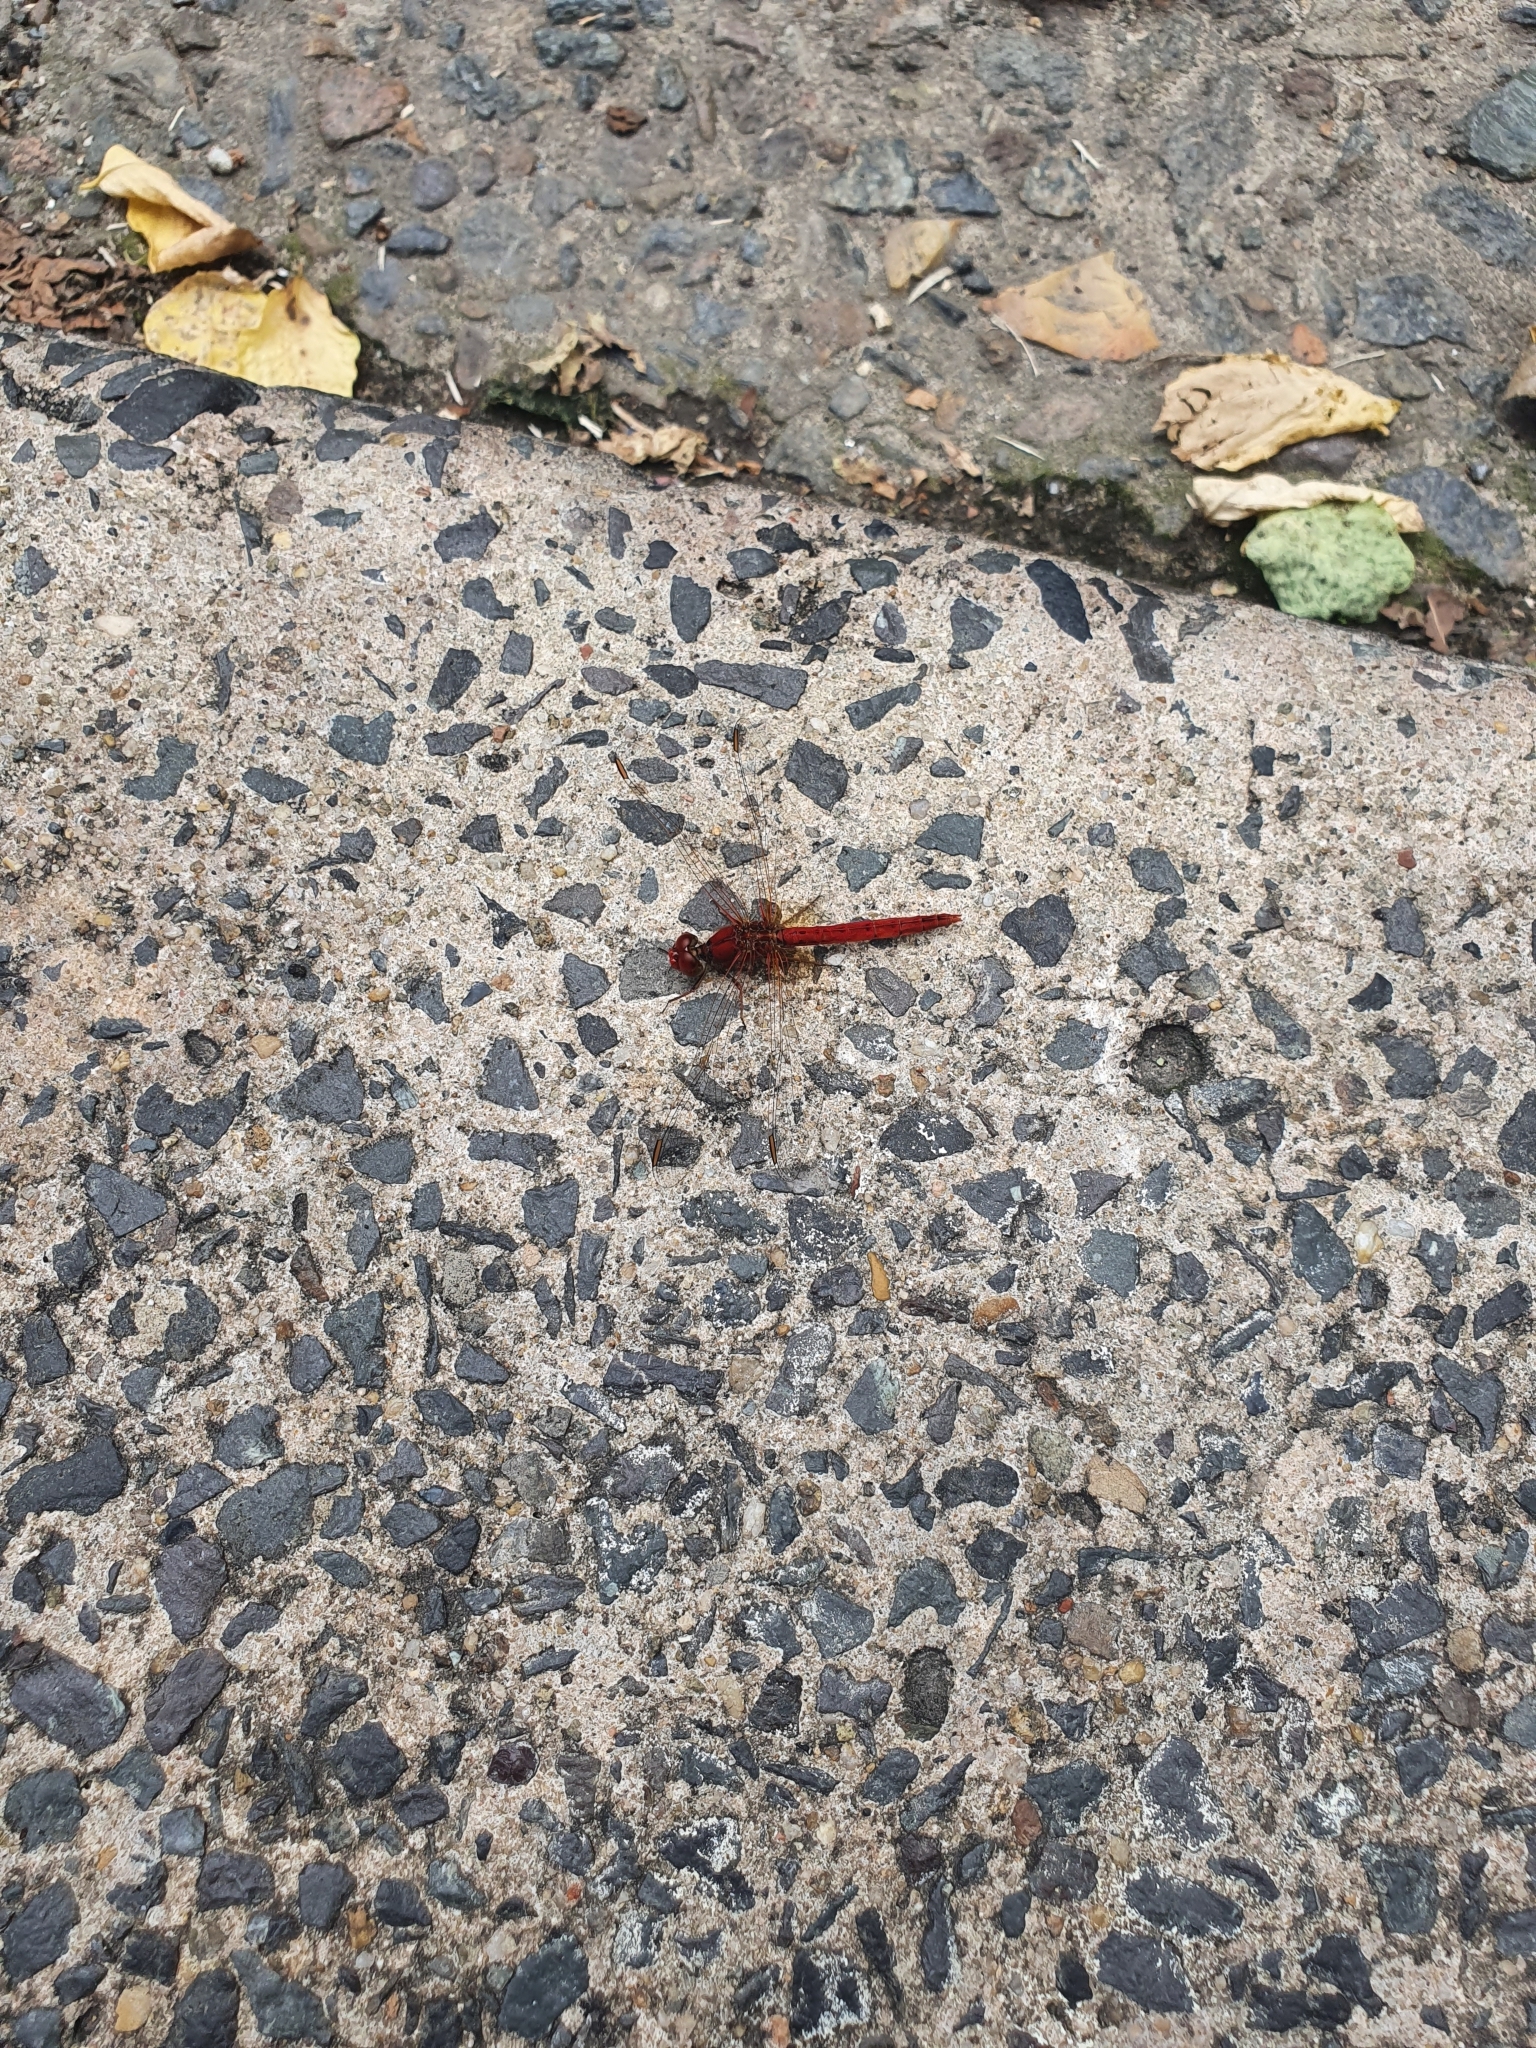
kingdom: Animalia
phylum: Arthropoda
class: Insecta
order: Odonata
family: Libellulidae
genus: Diplacodes
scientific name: Diplacodes haematodes
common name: Scarlet percher
